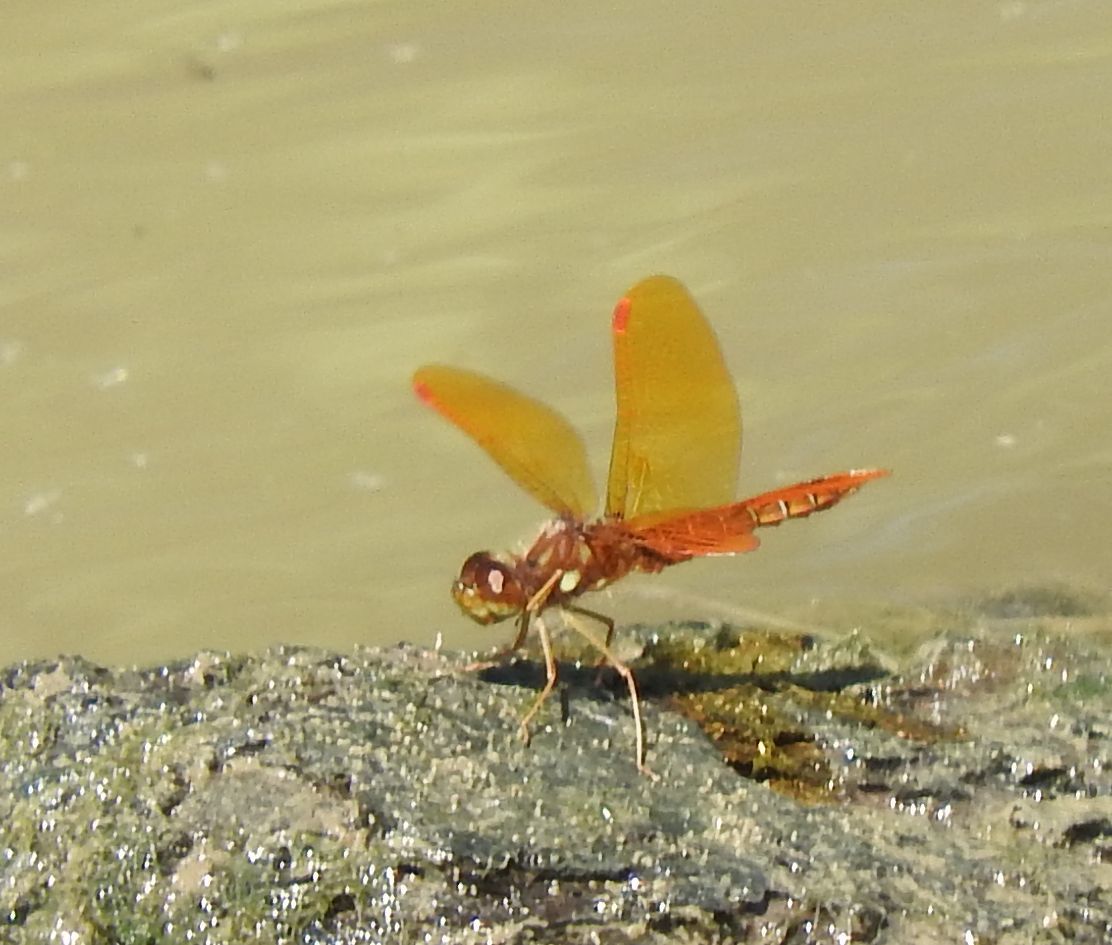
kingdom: Animalia
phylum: Arthropoda
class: Insecta
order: Odonata
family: Libellulidae
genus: Perithemis
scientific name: Perithemis tenera
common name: Eastern amberwing
